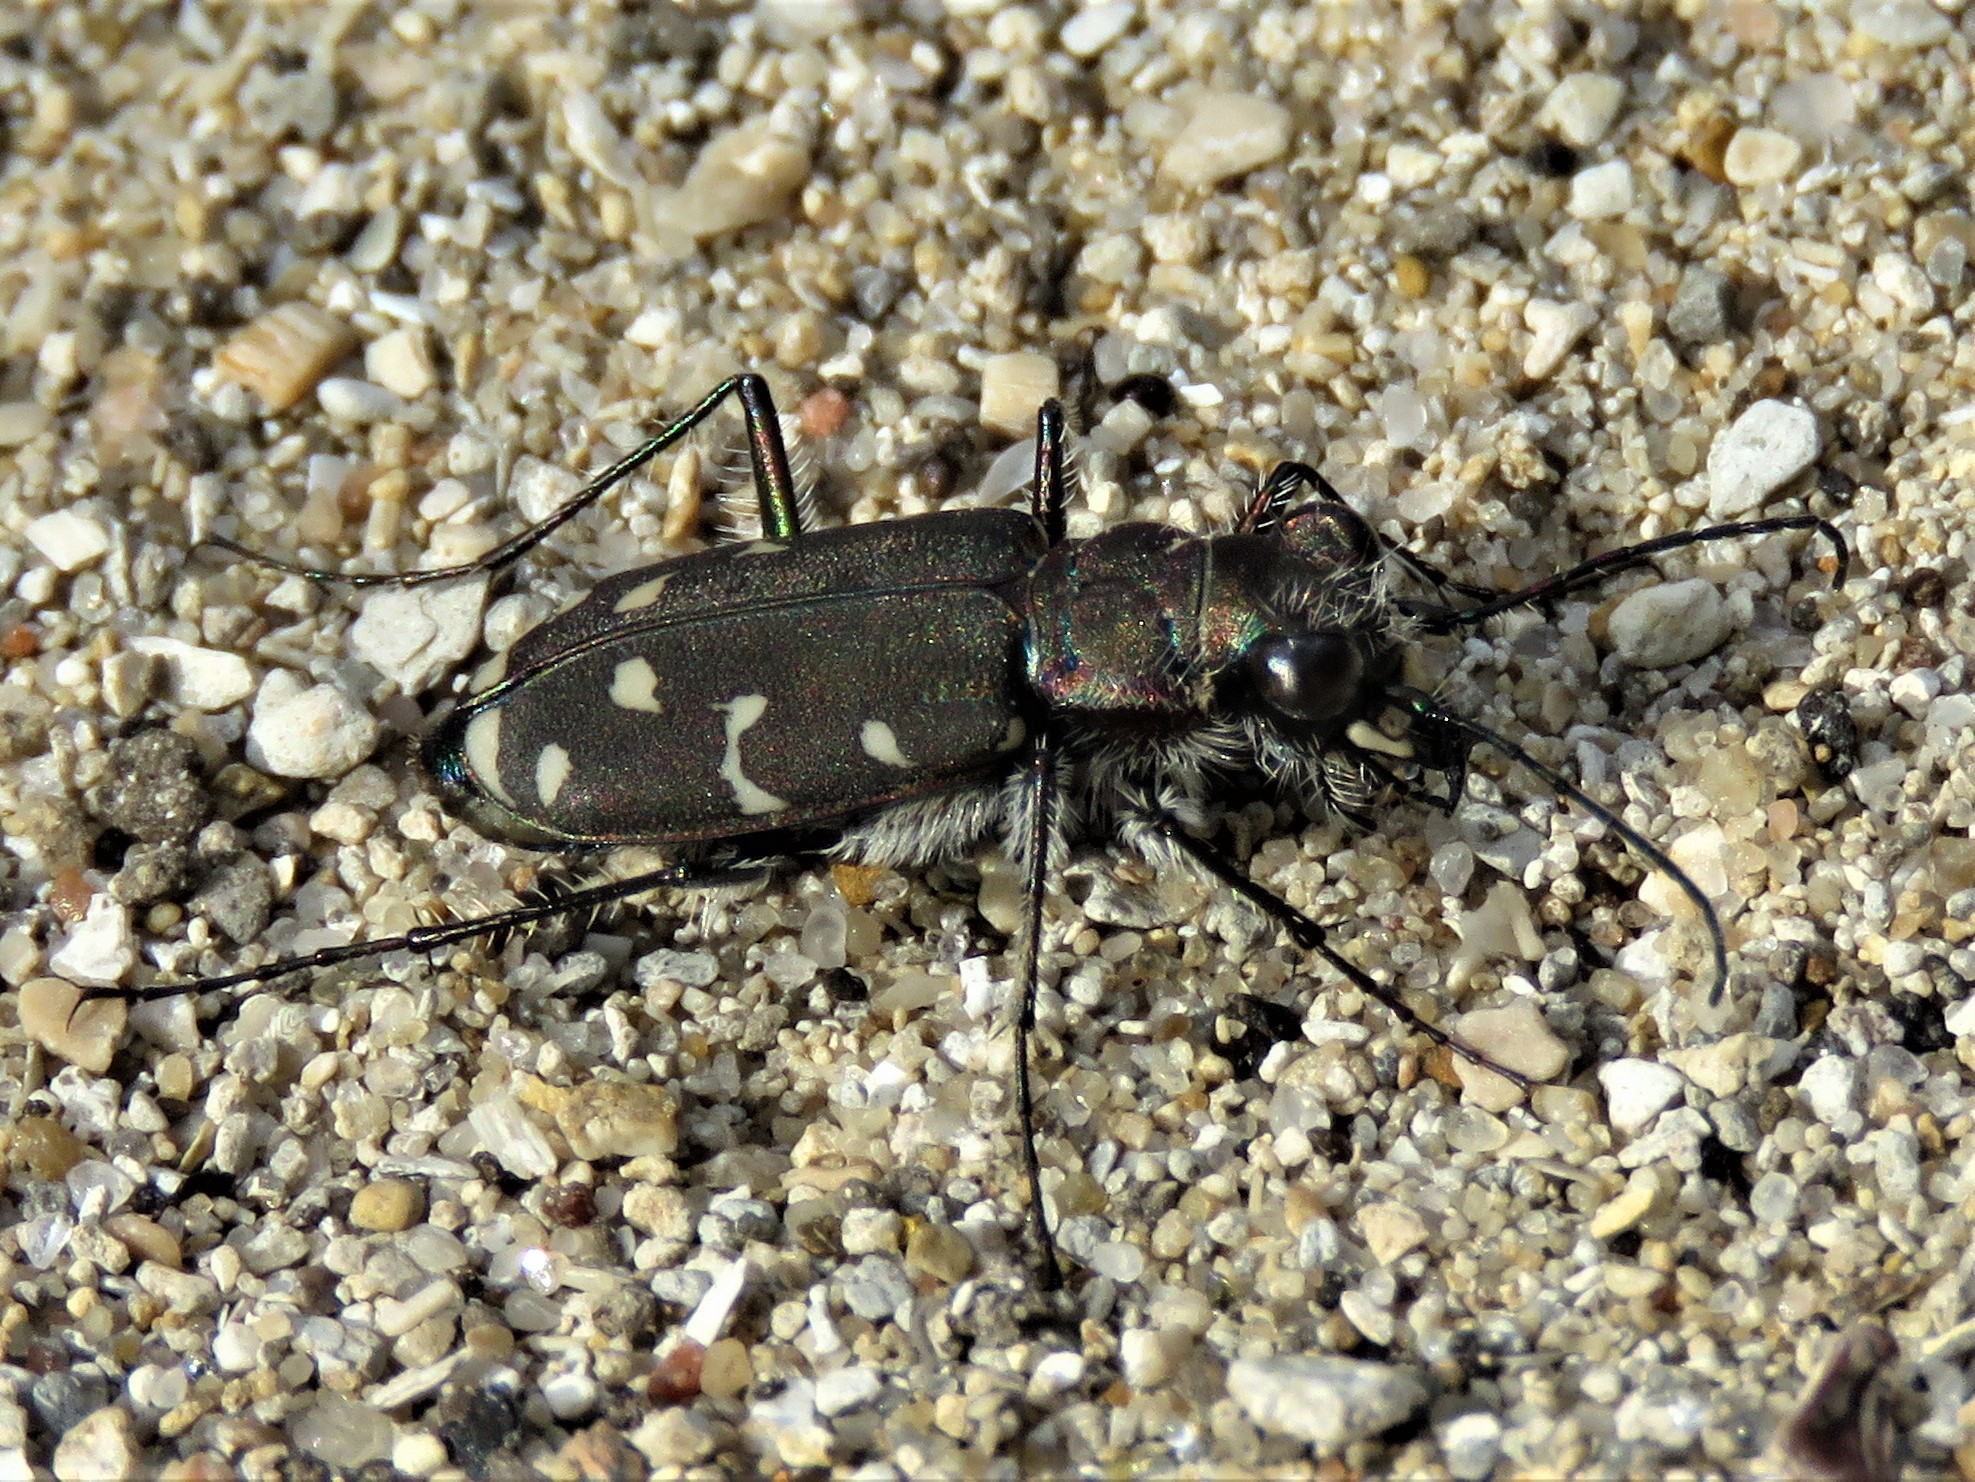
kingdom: Animalia
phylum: Arthropoda
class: Insecta
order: Coleoptera
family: Carabidae
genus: Cicindela
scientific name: Cicindela duodecimguttata
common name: Twelve-spotted tiger beetle
